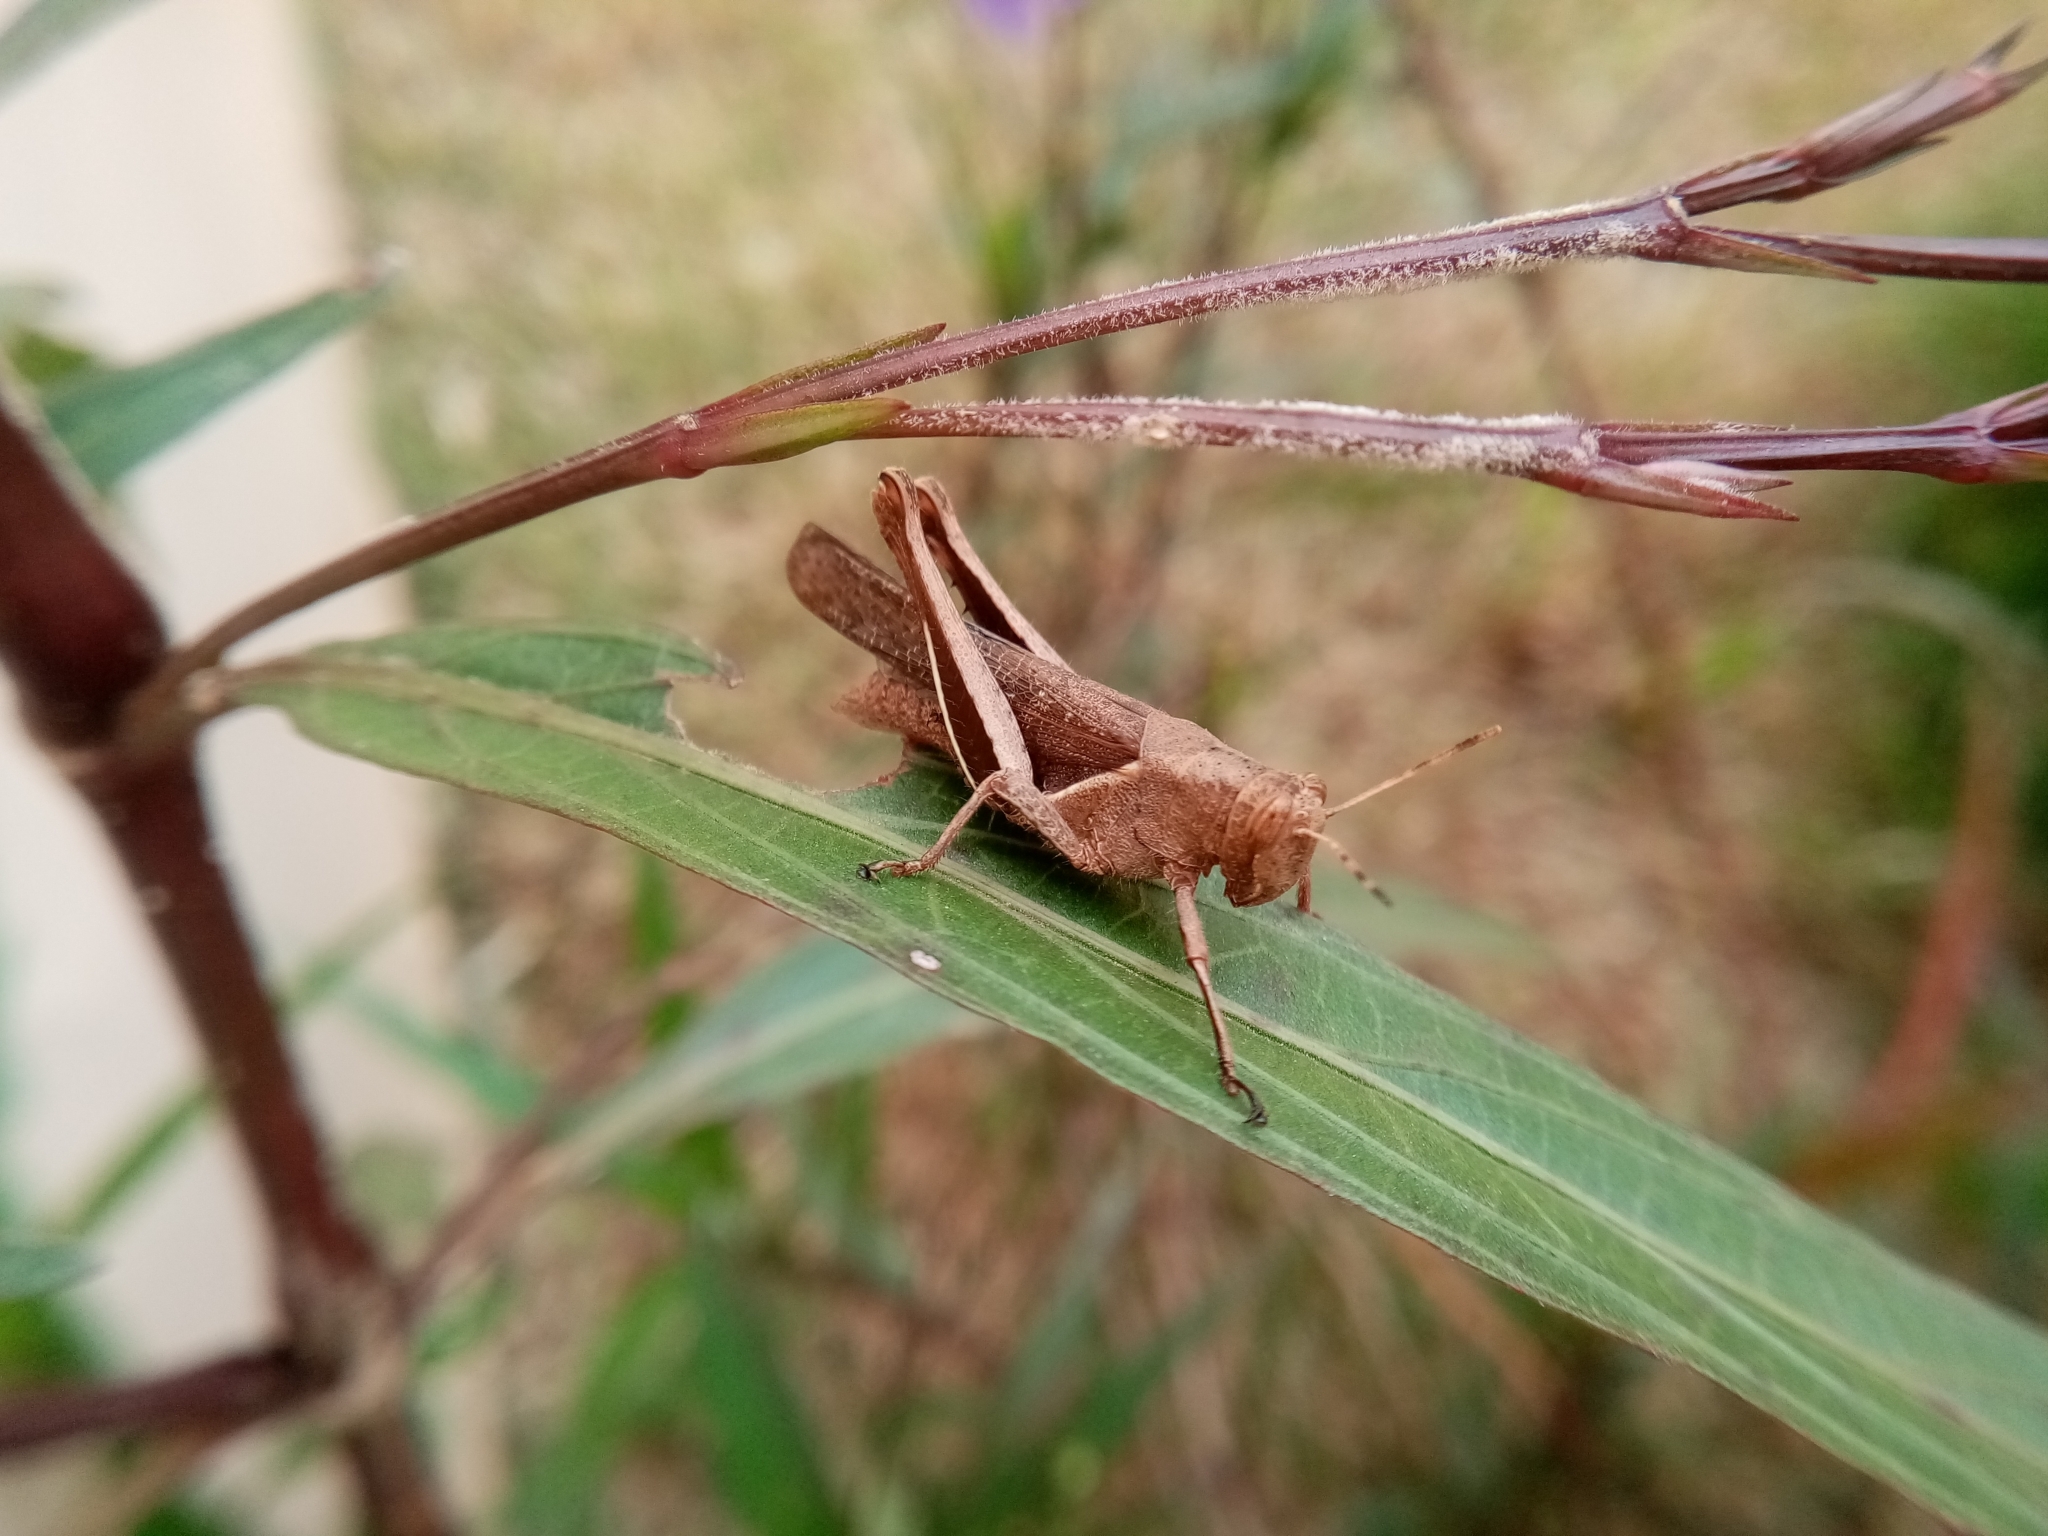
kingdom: Animalia
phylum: Arthropoda
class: Insecta
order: Orthoptera
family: Acrididae
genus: Abracris
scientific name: Abracris flavolineata
